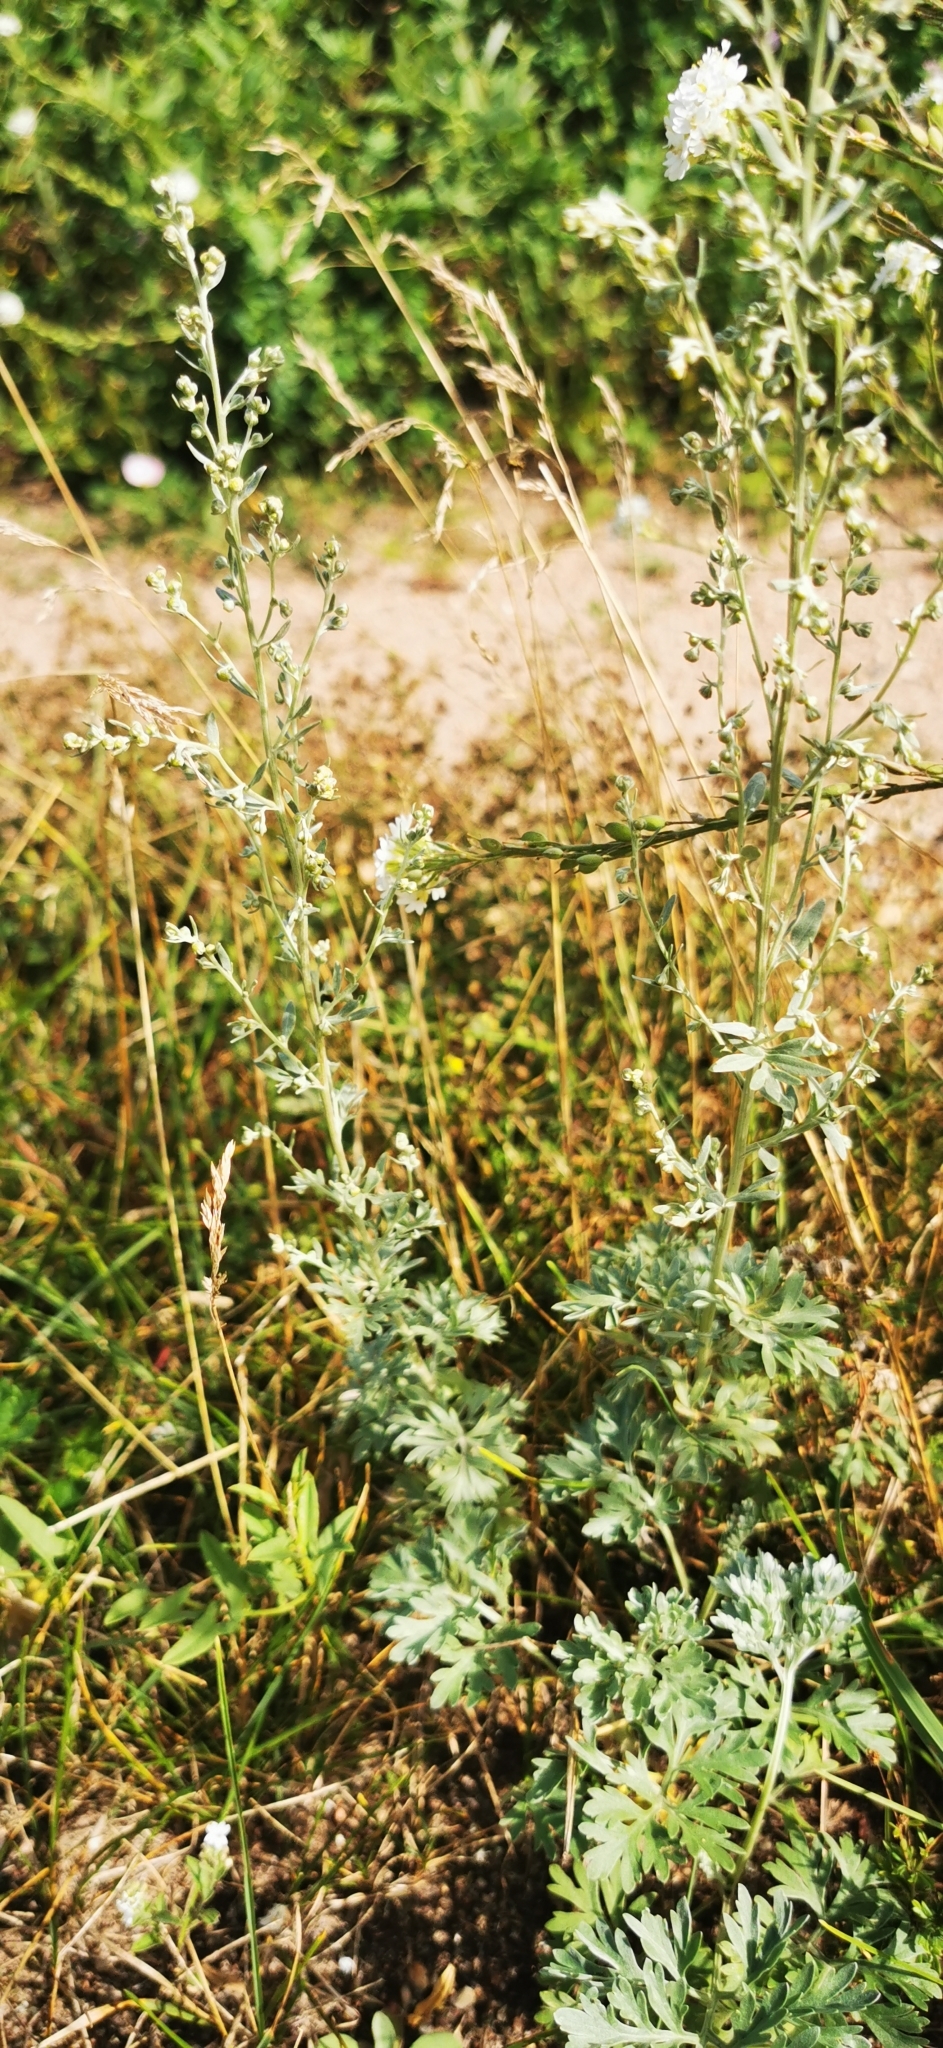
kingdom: Plantae
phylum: Tracheophyta
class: Magnoliopsida
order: Asterales
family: Asteraceae
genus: Artemisia
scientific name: Artemisia absinthium
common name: Wormwood
